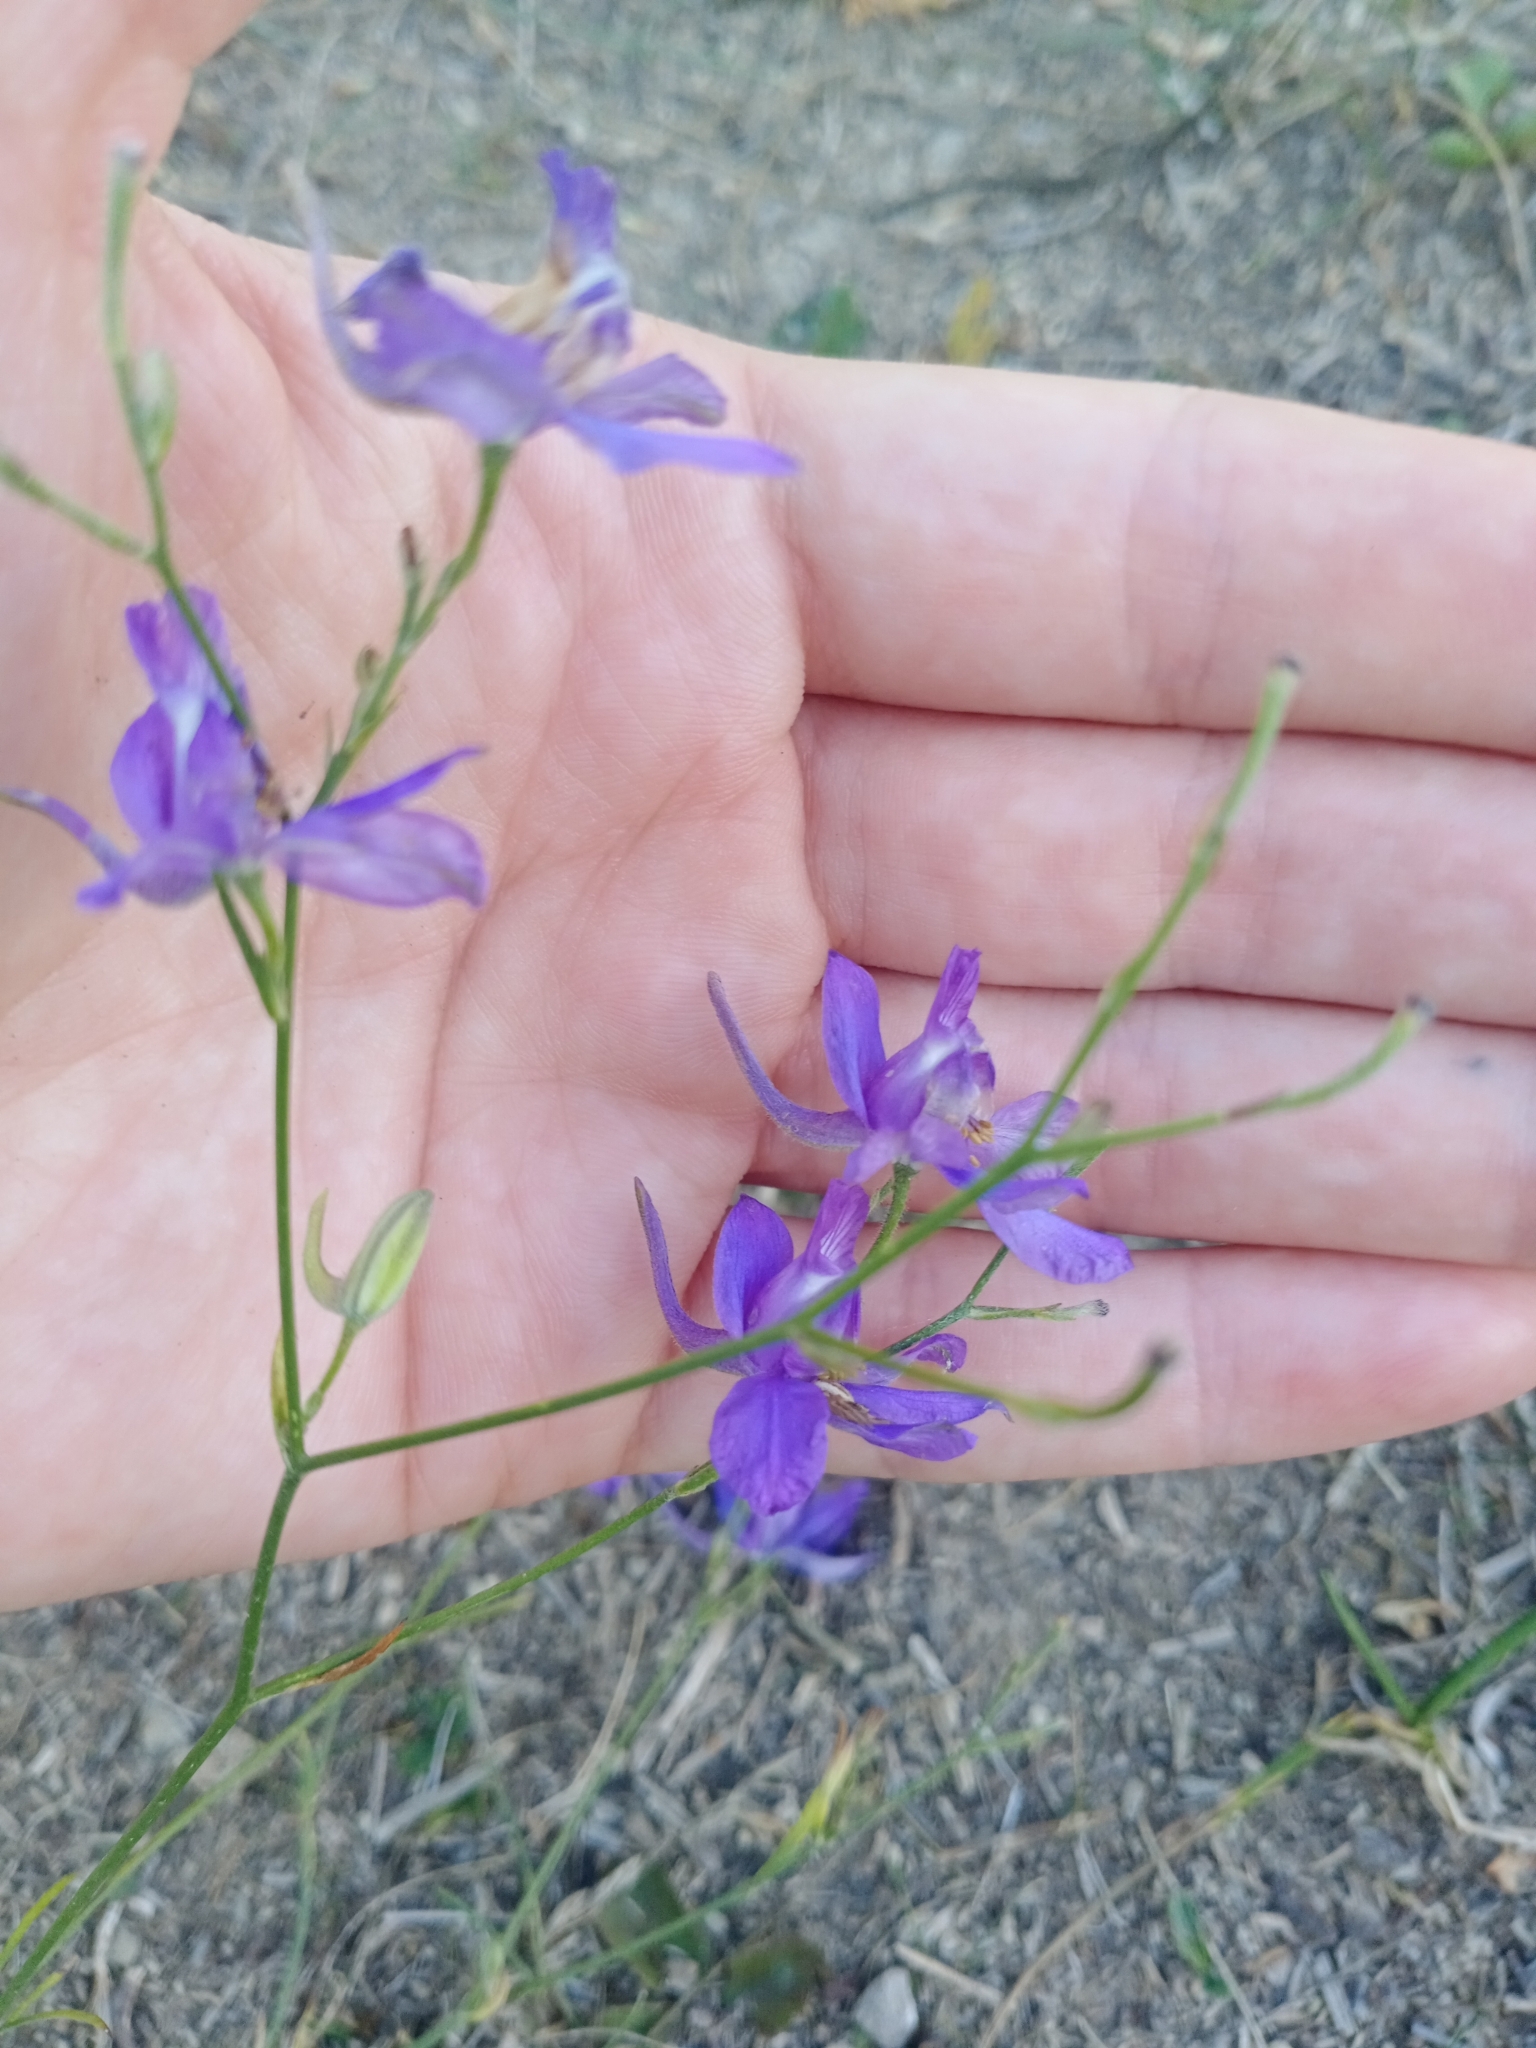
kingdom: Plantae
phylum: Tracheophyta
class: Magnoliopsida
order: Ranunculales
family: Ranunculaceae
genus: Delphinium
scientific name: Delphinium consolida
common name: Branching larkspur
